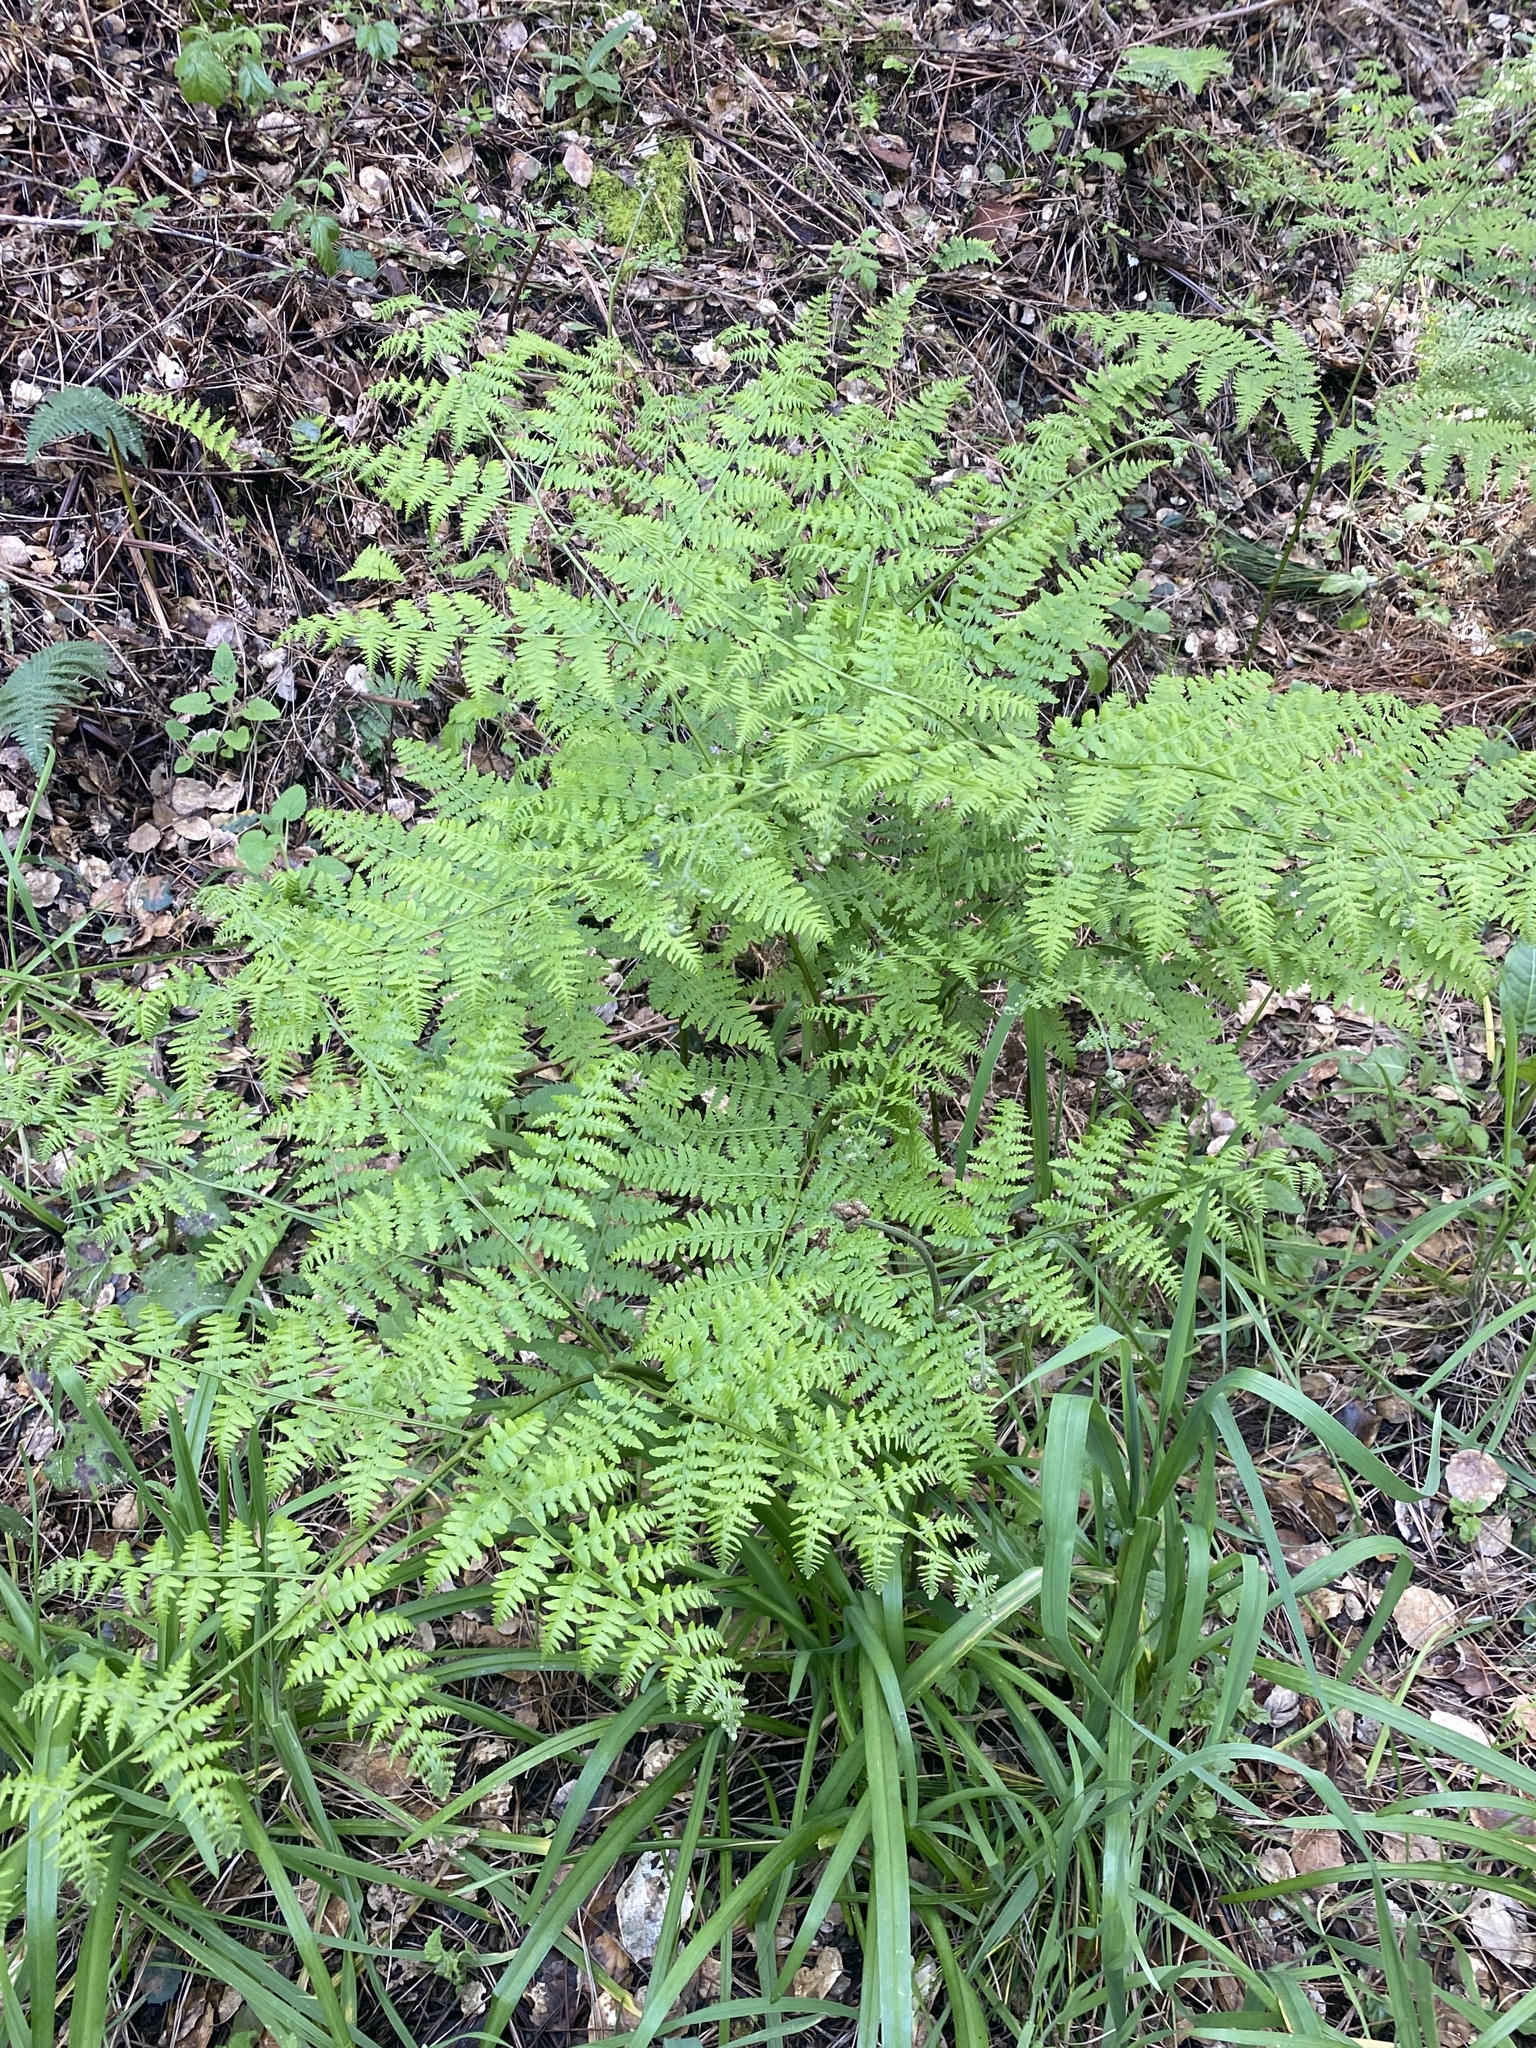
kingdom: Plantae
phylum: Tracheophyta
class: Polypodiopsida
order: Polypodiales
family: Dennstaedtiaceae
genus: Pteridium
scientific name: Pteridium aquilinum
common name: Bracken
